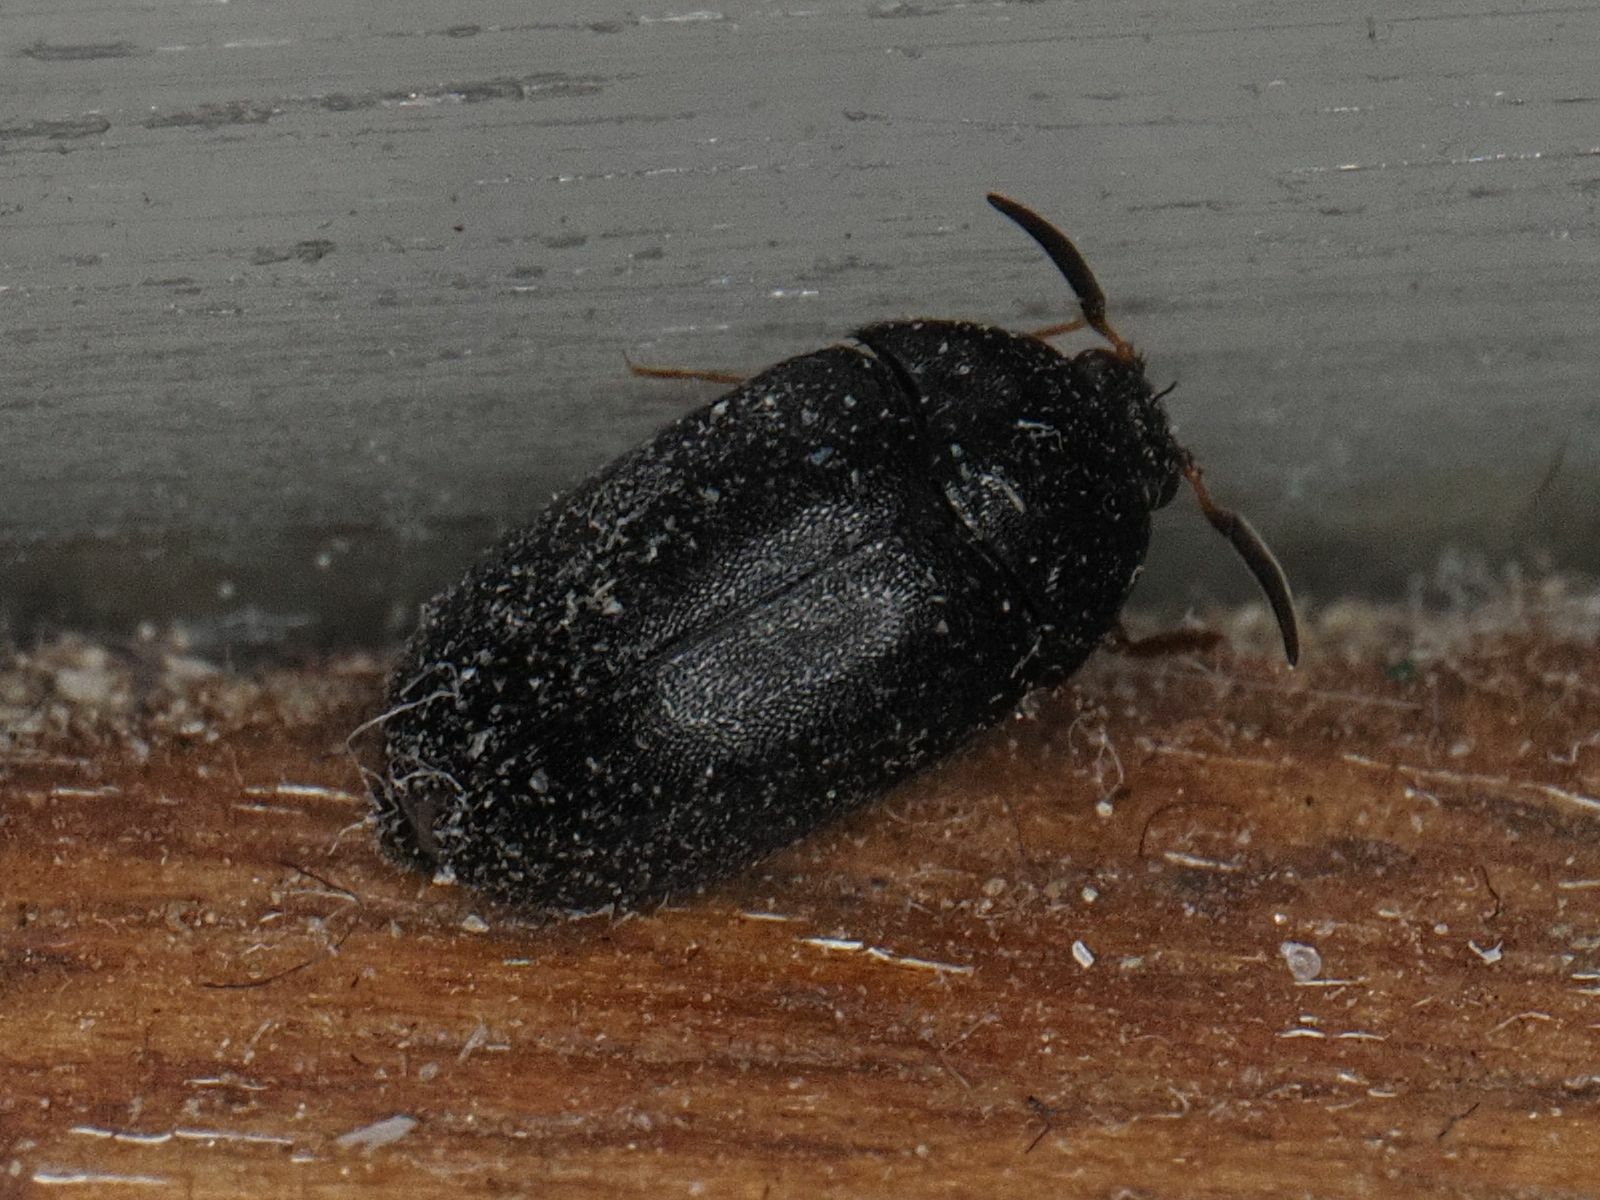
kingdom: Animalia
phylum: Arthropoda
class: Insecta
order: Coleoptera
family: Dermestidae
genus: Attagenus
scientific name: Attagenus schaefferi
